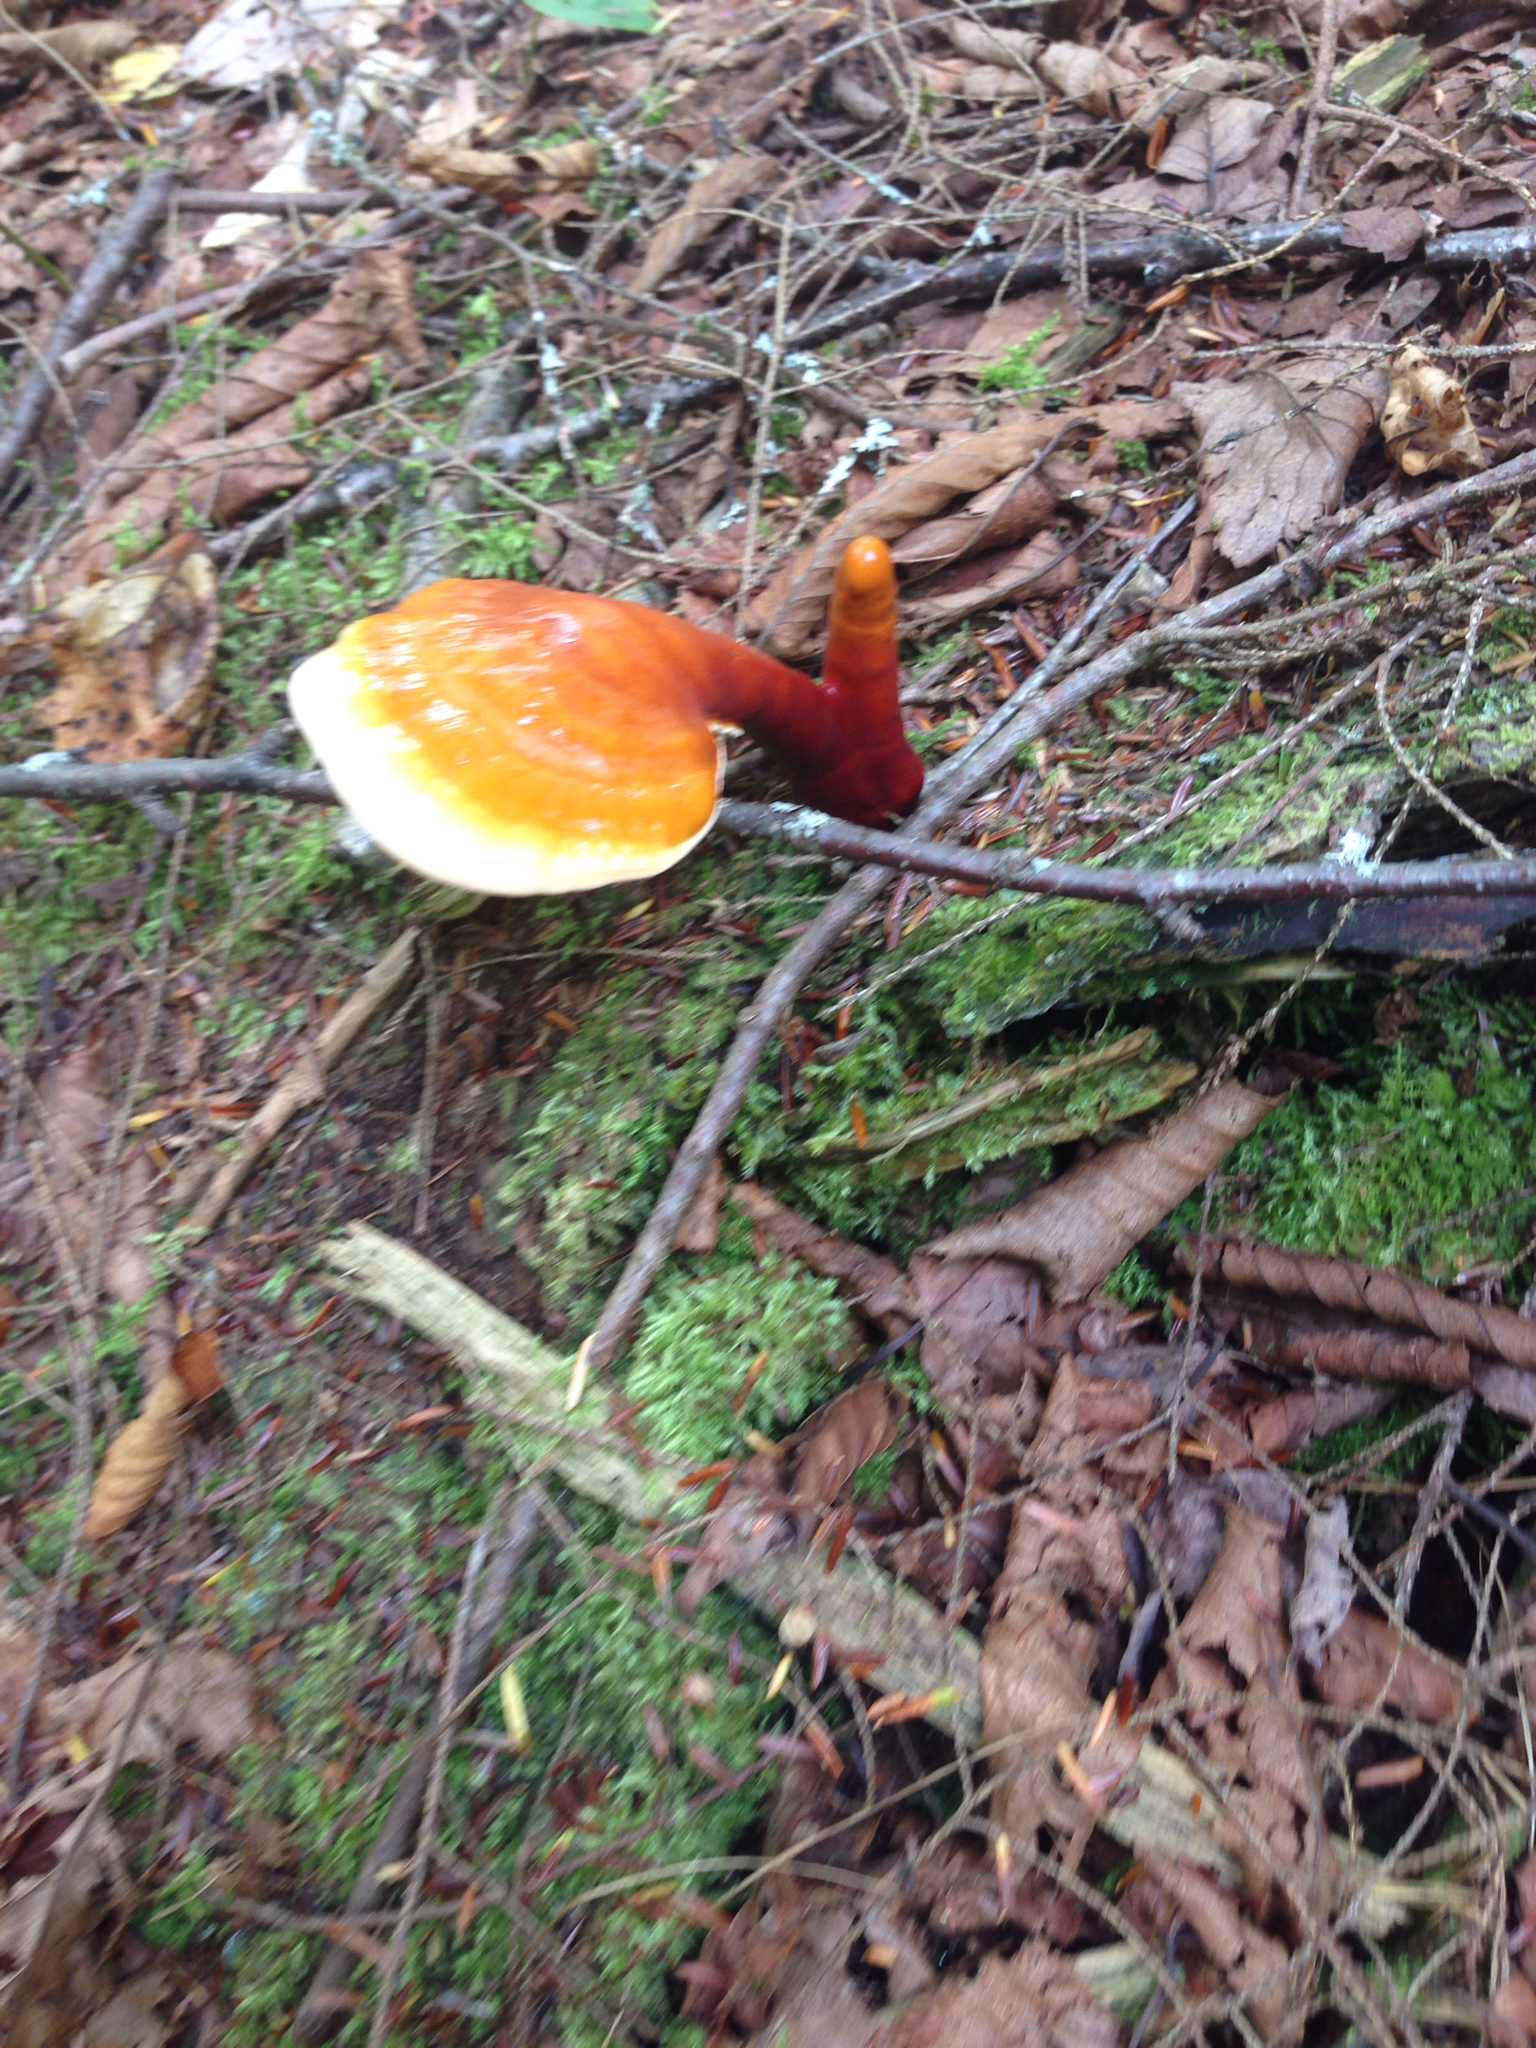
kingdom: Fungi
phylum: Basidiomycota
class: Agaricomycetes
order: Polyporales
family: Polyporaceae
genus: Ganoderma
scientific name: Ganoderma tsugae
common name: Hemlock varnish shelf
